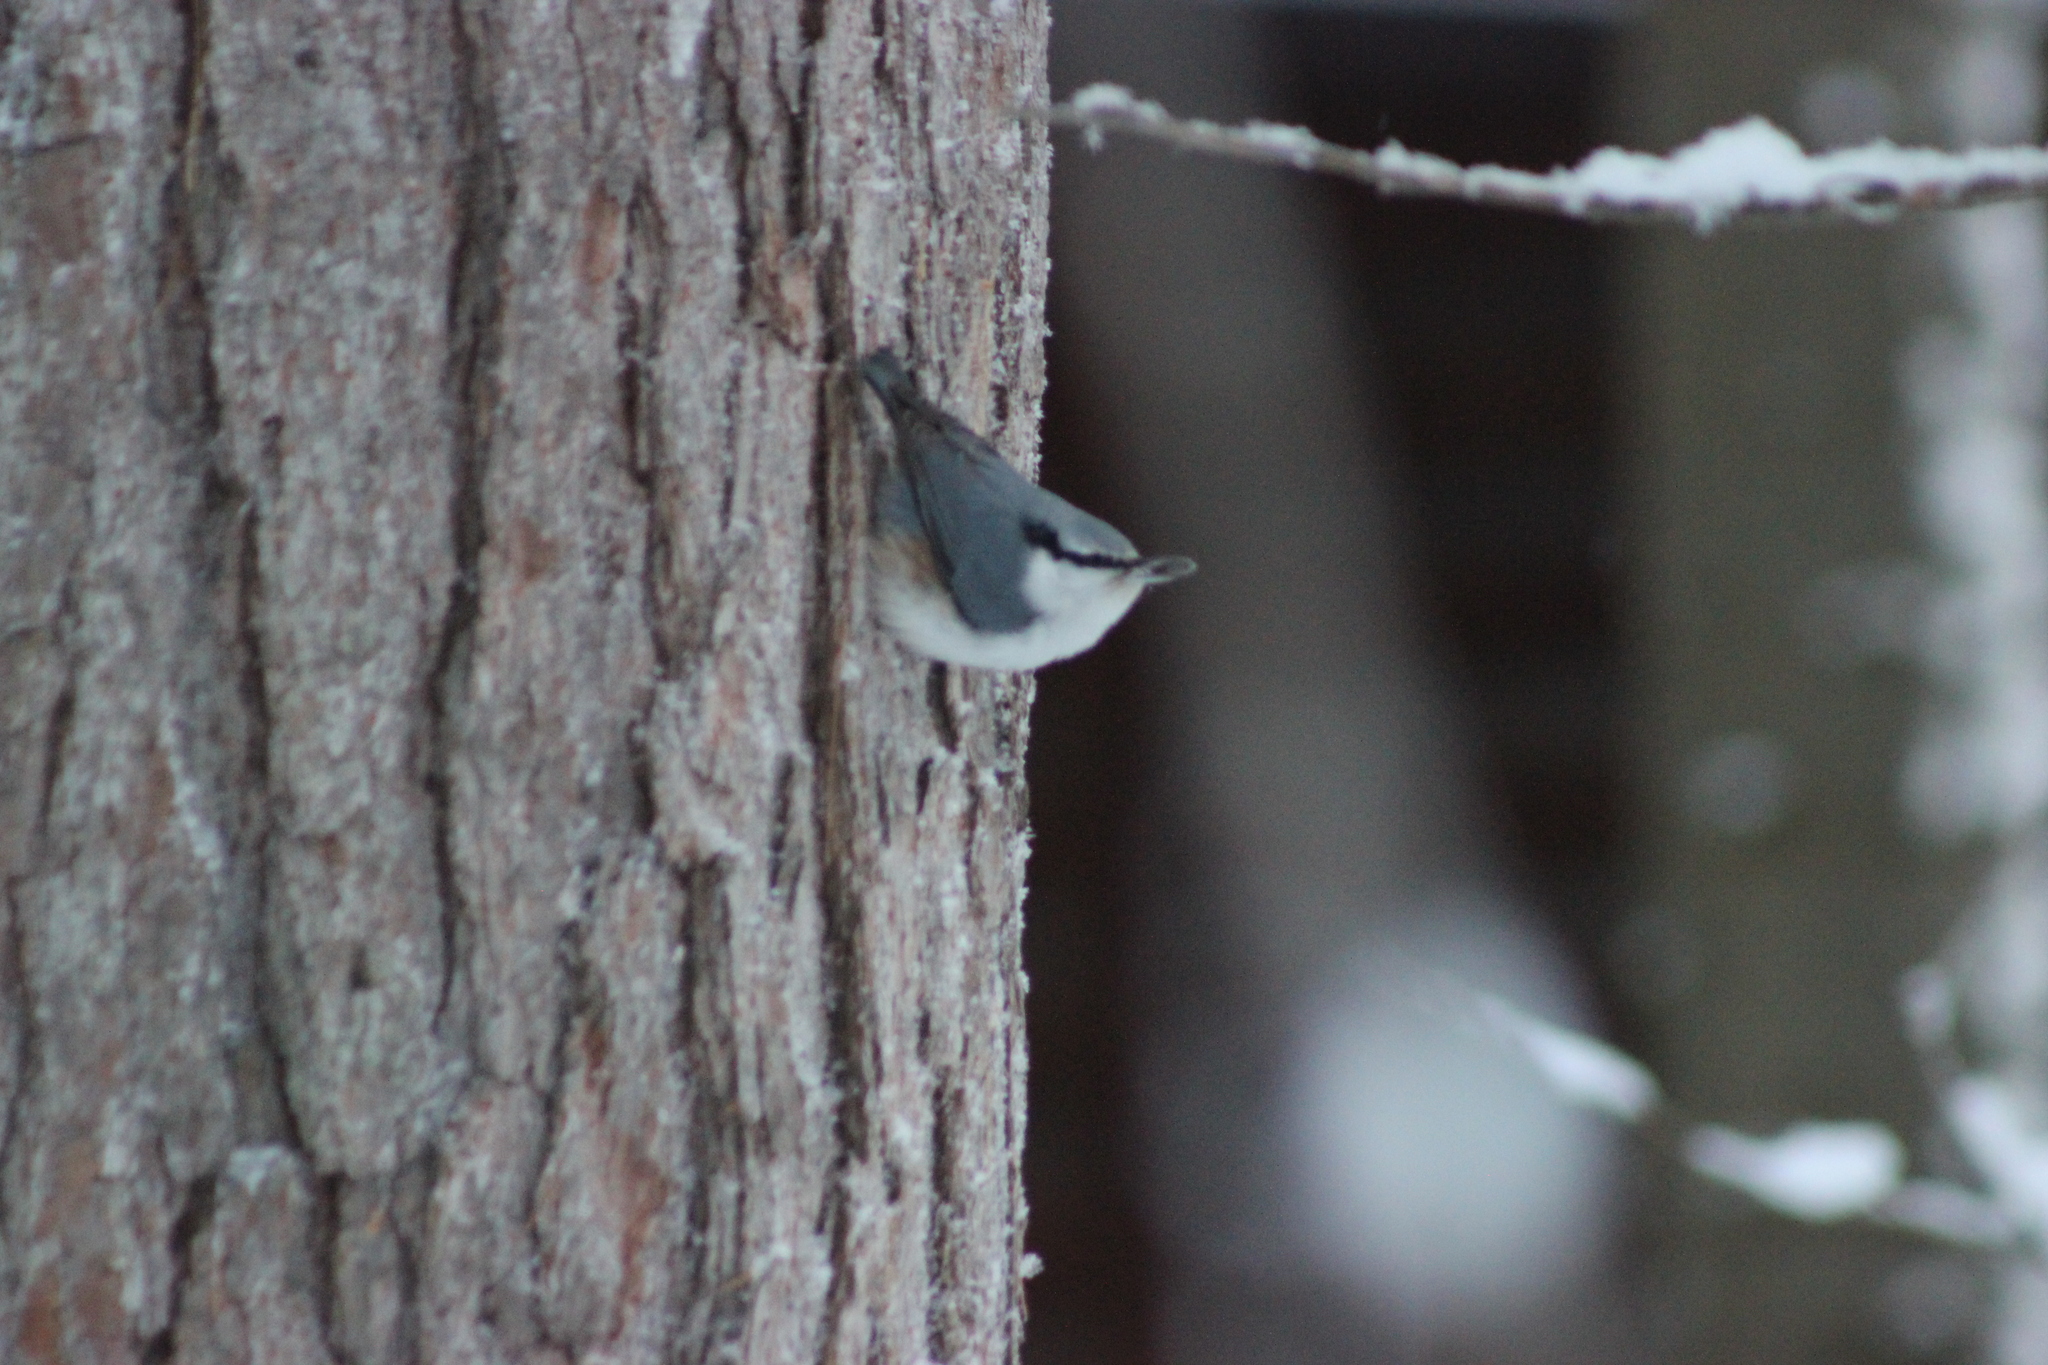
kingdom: Animalia
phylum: Chordata
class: Aves
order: Passeriformes
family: Sittidae
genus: Sitta
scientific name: Sitta europaea
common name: Eurasian nuthatch
